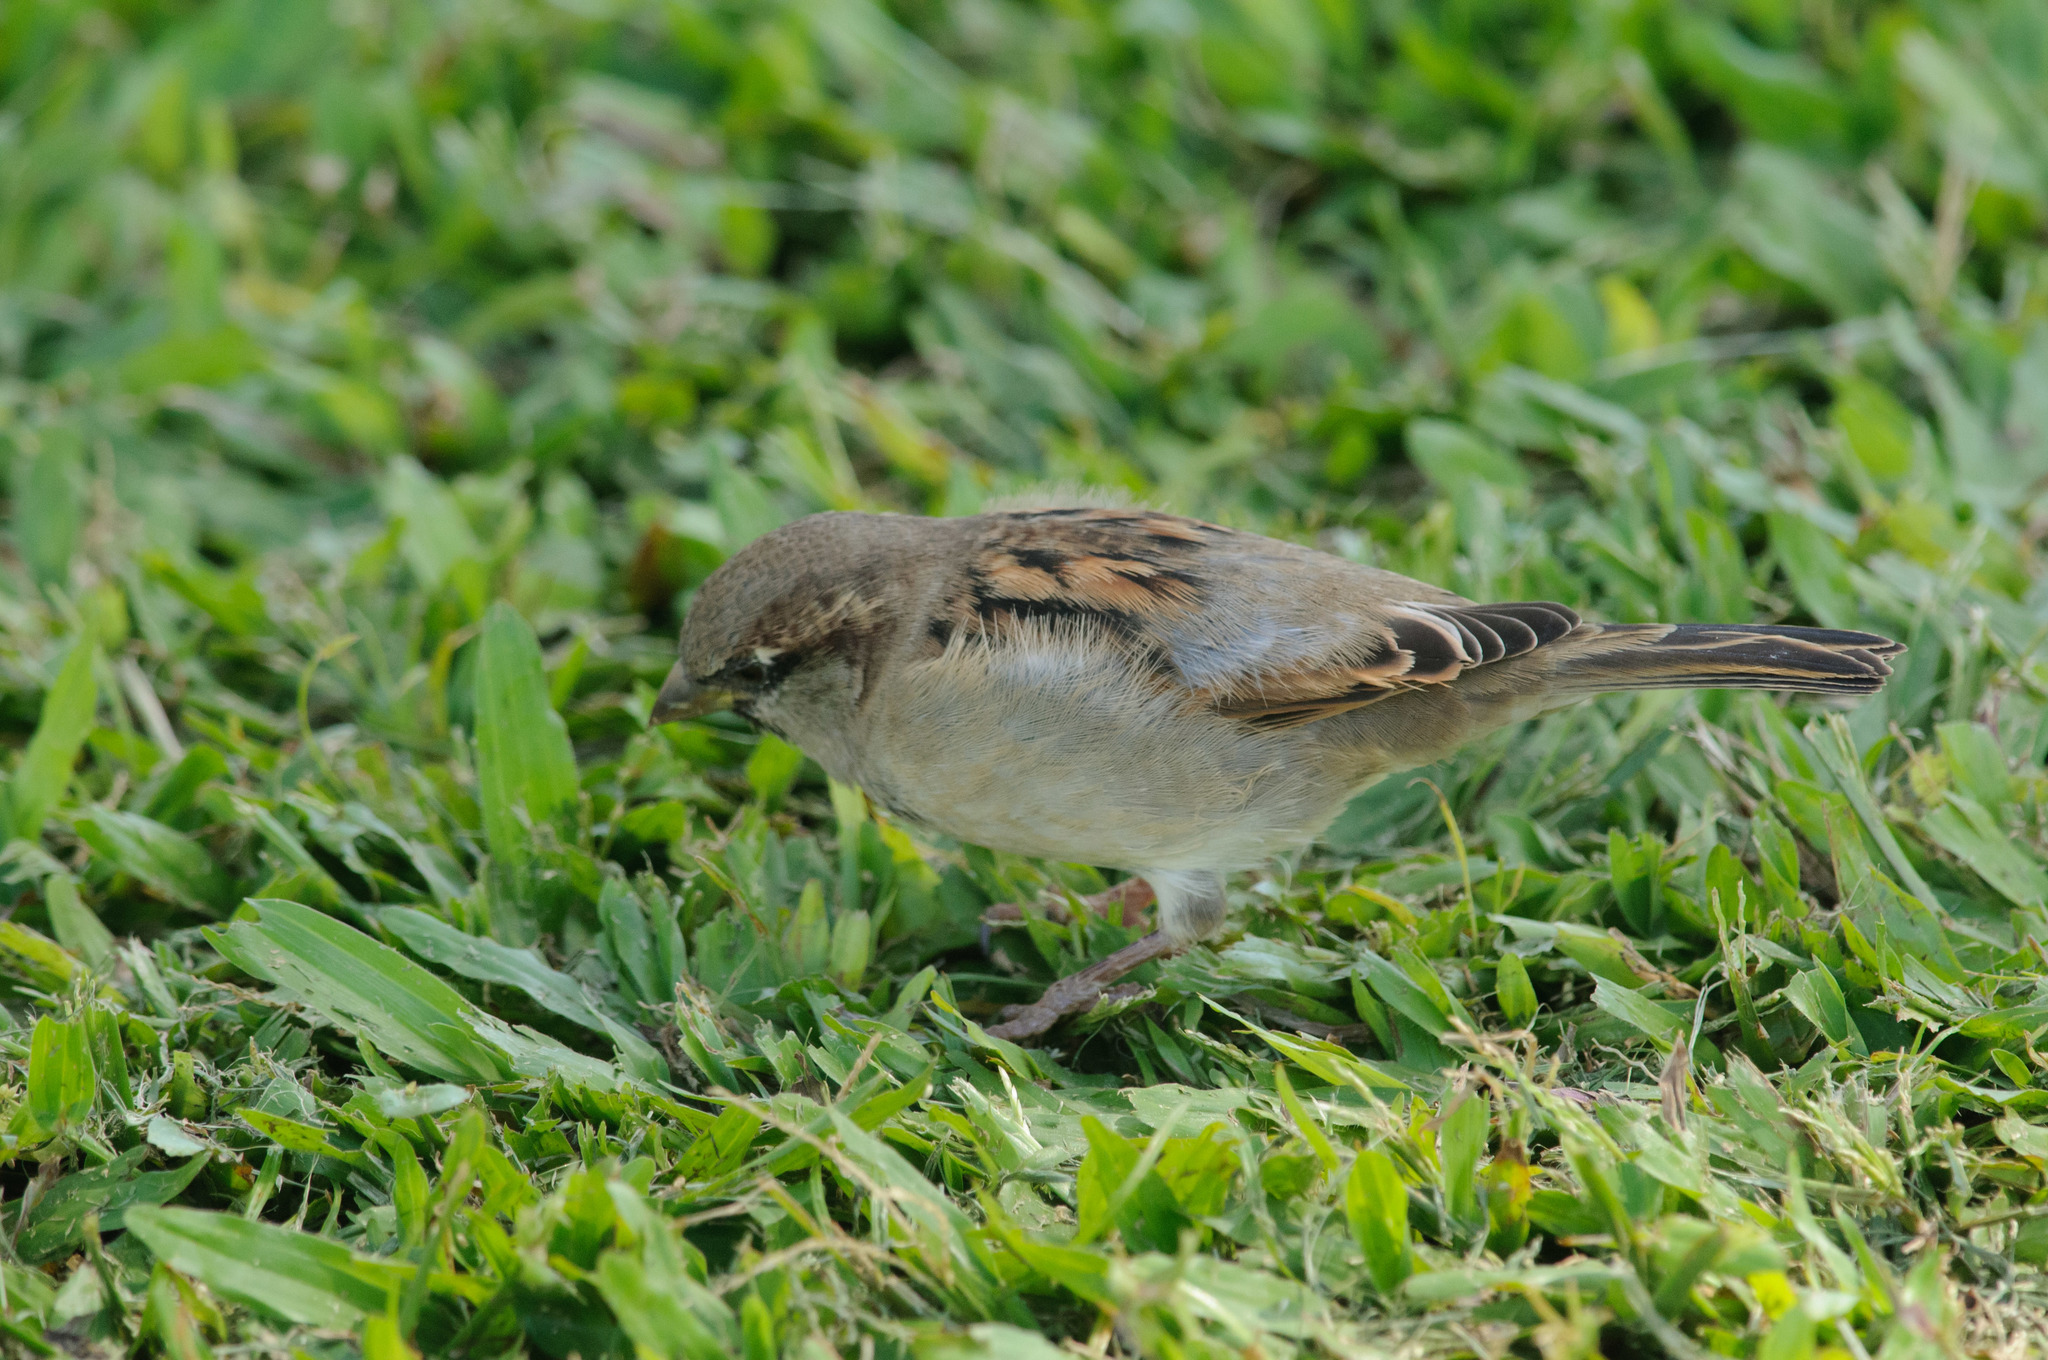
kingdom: Animalia
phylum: Chordata
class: Aves
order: Passeriformes
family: Passeridae
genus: Passer
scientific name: Passer domesticus
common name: House sparrow
